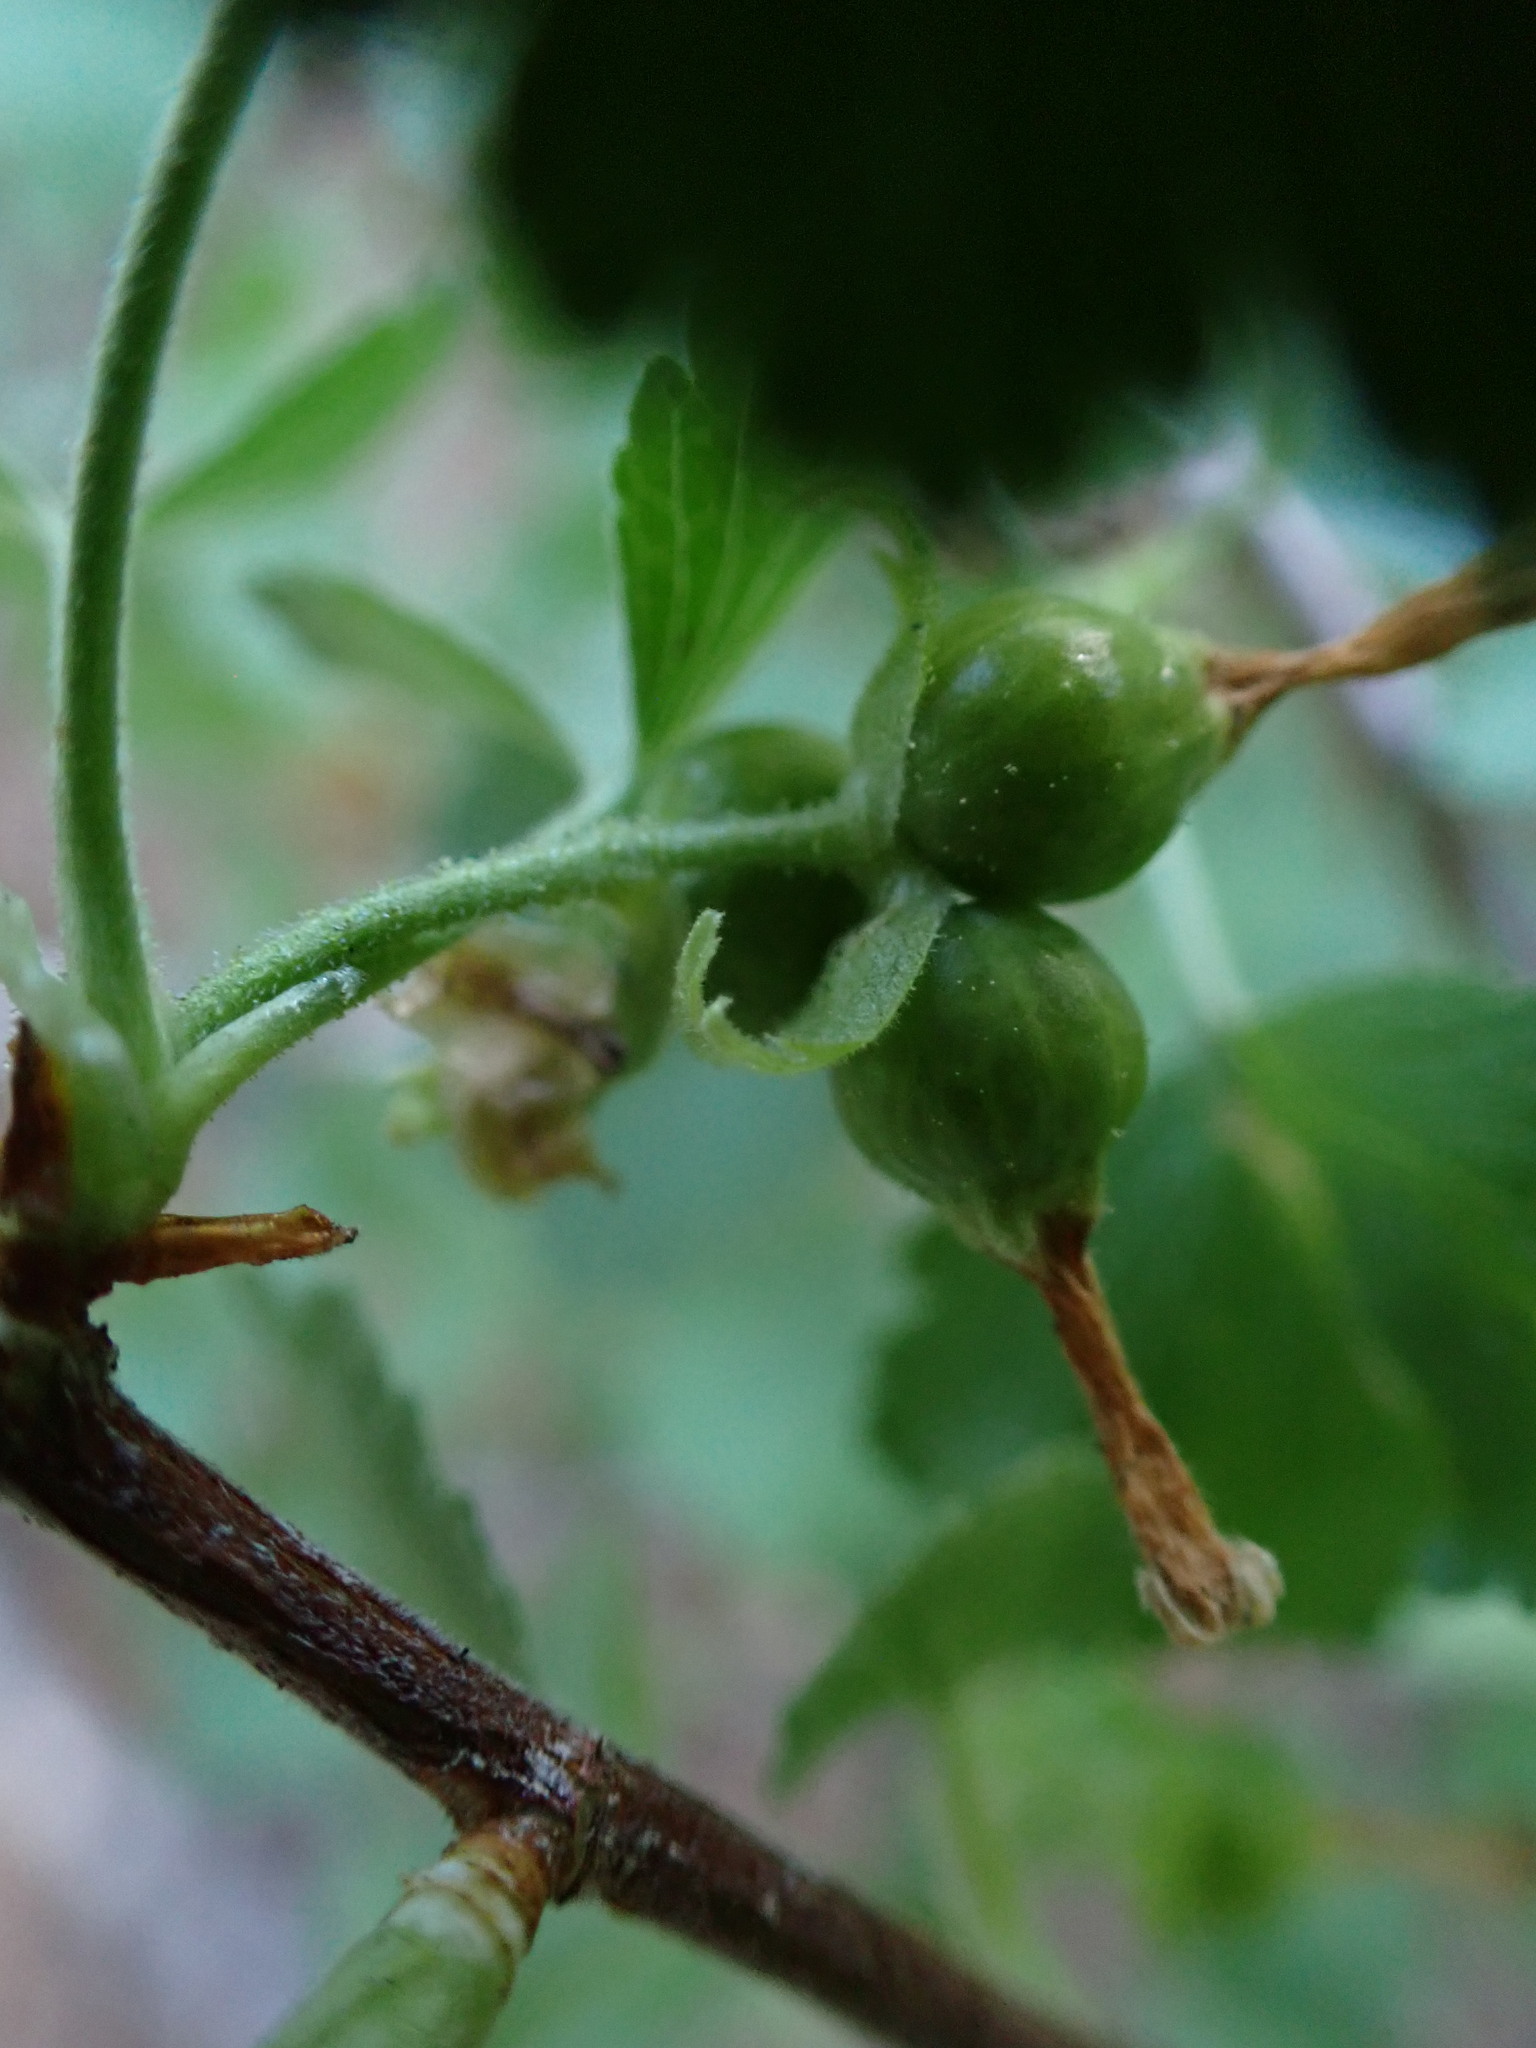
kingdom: Plantae
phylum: Tracheophyta
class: Magnoliopsida
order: Saxifragales
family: Grossulariaceae
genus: Ribes
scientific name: Ribes cereum
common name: Wax currant
